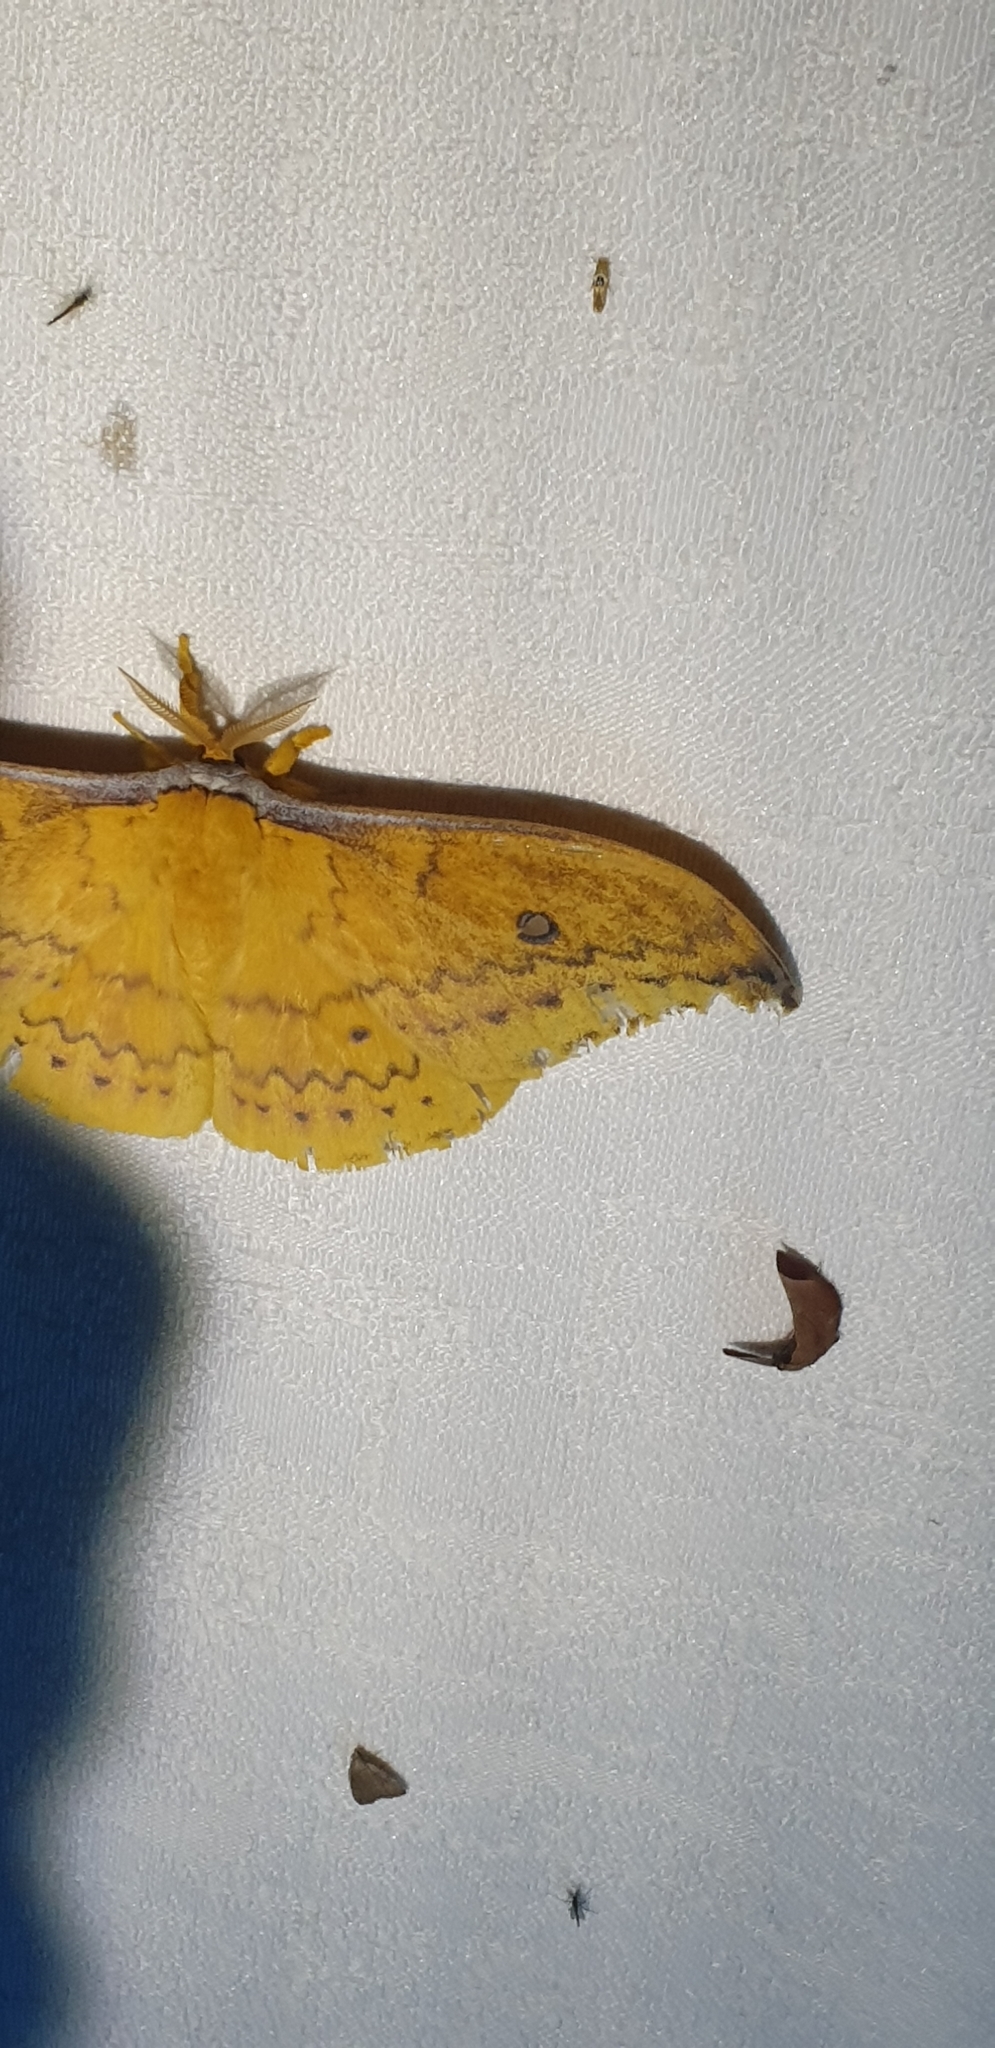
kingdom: Animalia
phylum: Arthropoda
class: Insecta
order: Lepidoptera
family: Saturniidae
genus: Syntherata
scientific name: Syntherata janetta
